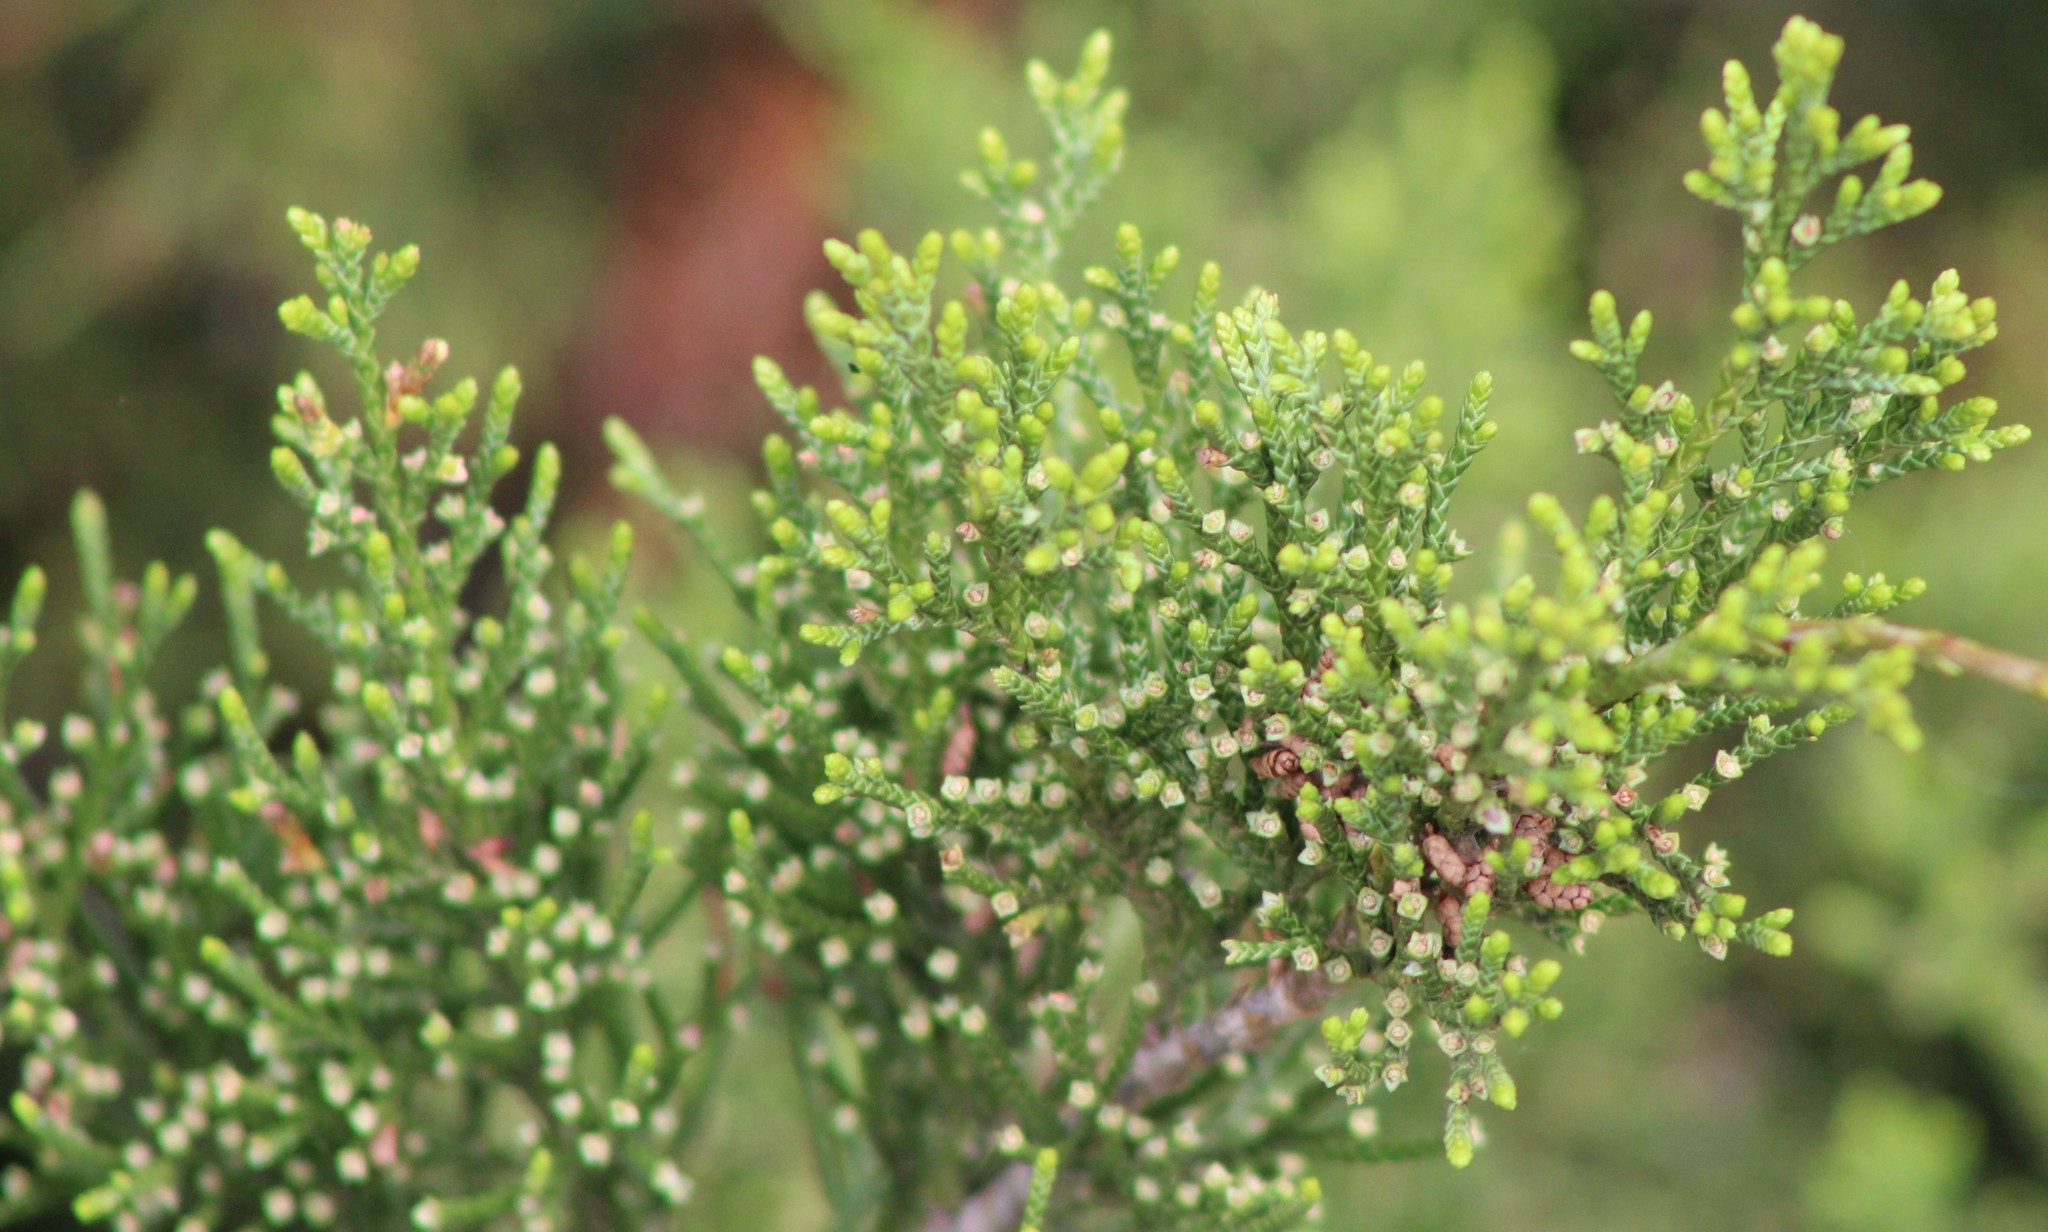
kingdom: Plantae
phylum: Tracheophyta
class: Pinopsida
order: Pinales
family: Cupressaceae
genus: Juniperus
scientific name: Juniperus virginiana
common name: Red juniper
